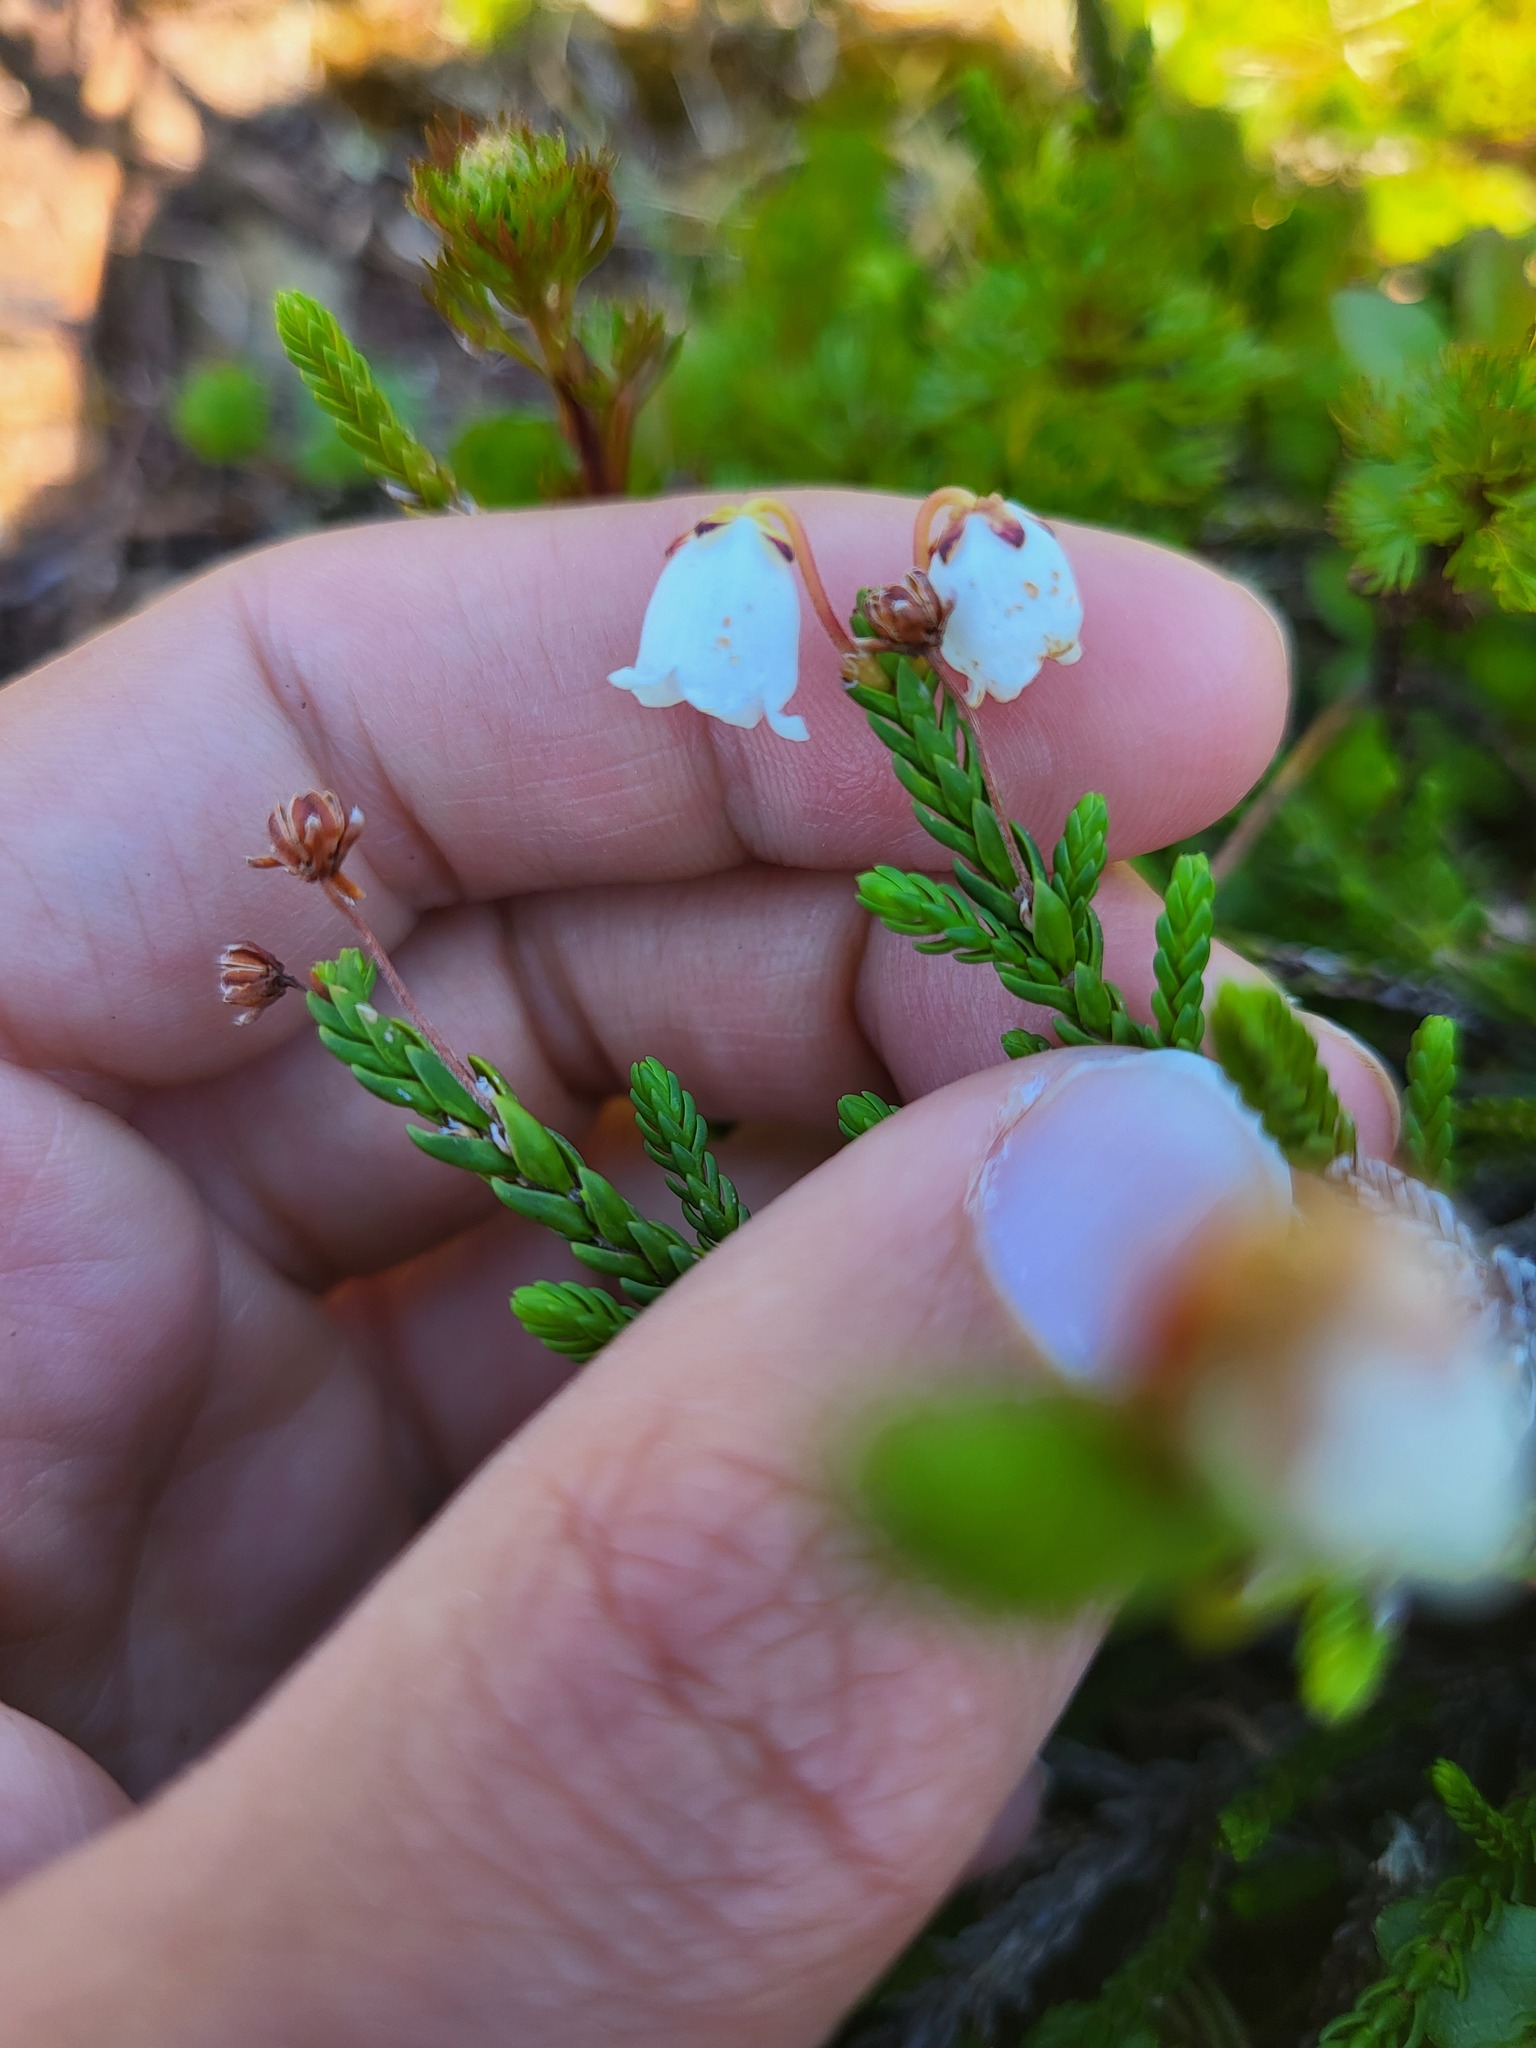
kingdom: Plantae
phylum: Tracheophyta
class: Magnoliopsida
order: Ericales
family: Ericaceae
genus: Cassiope
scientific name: Cassiope mertensiana
